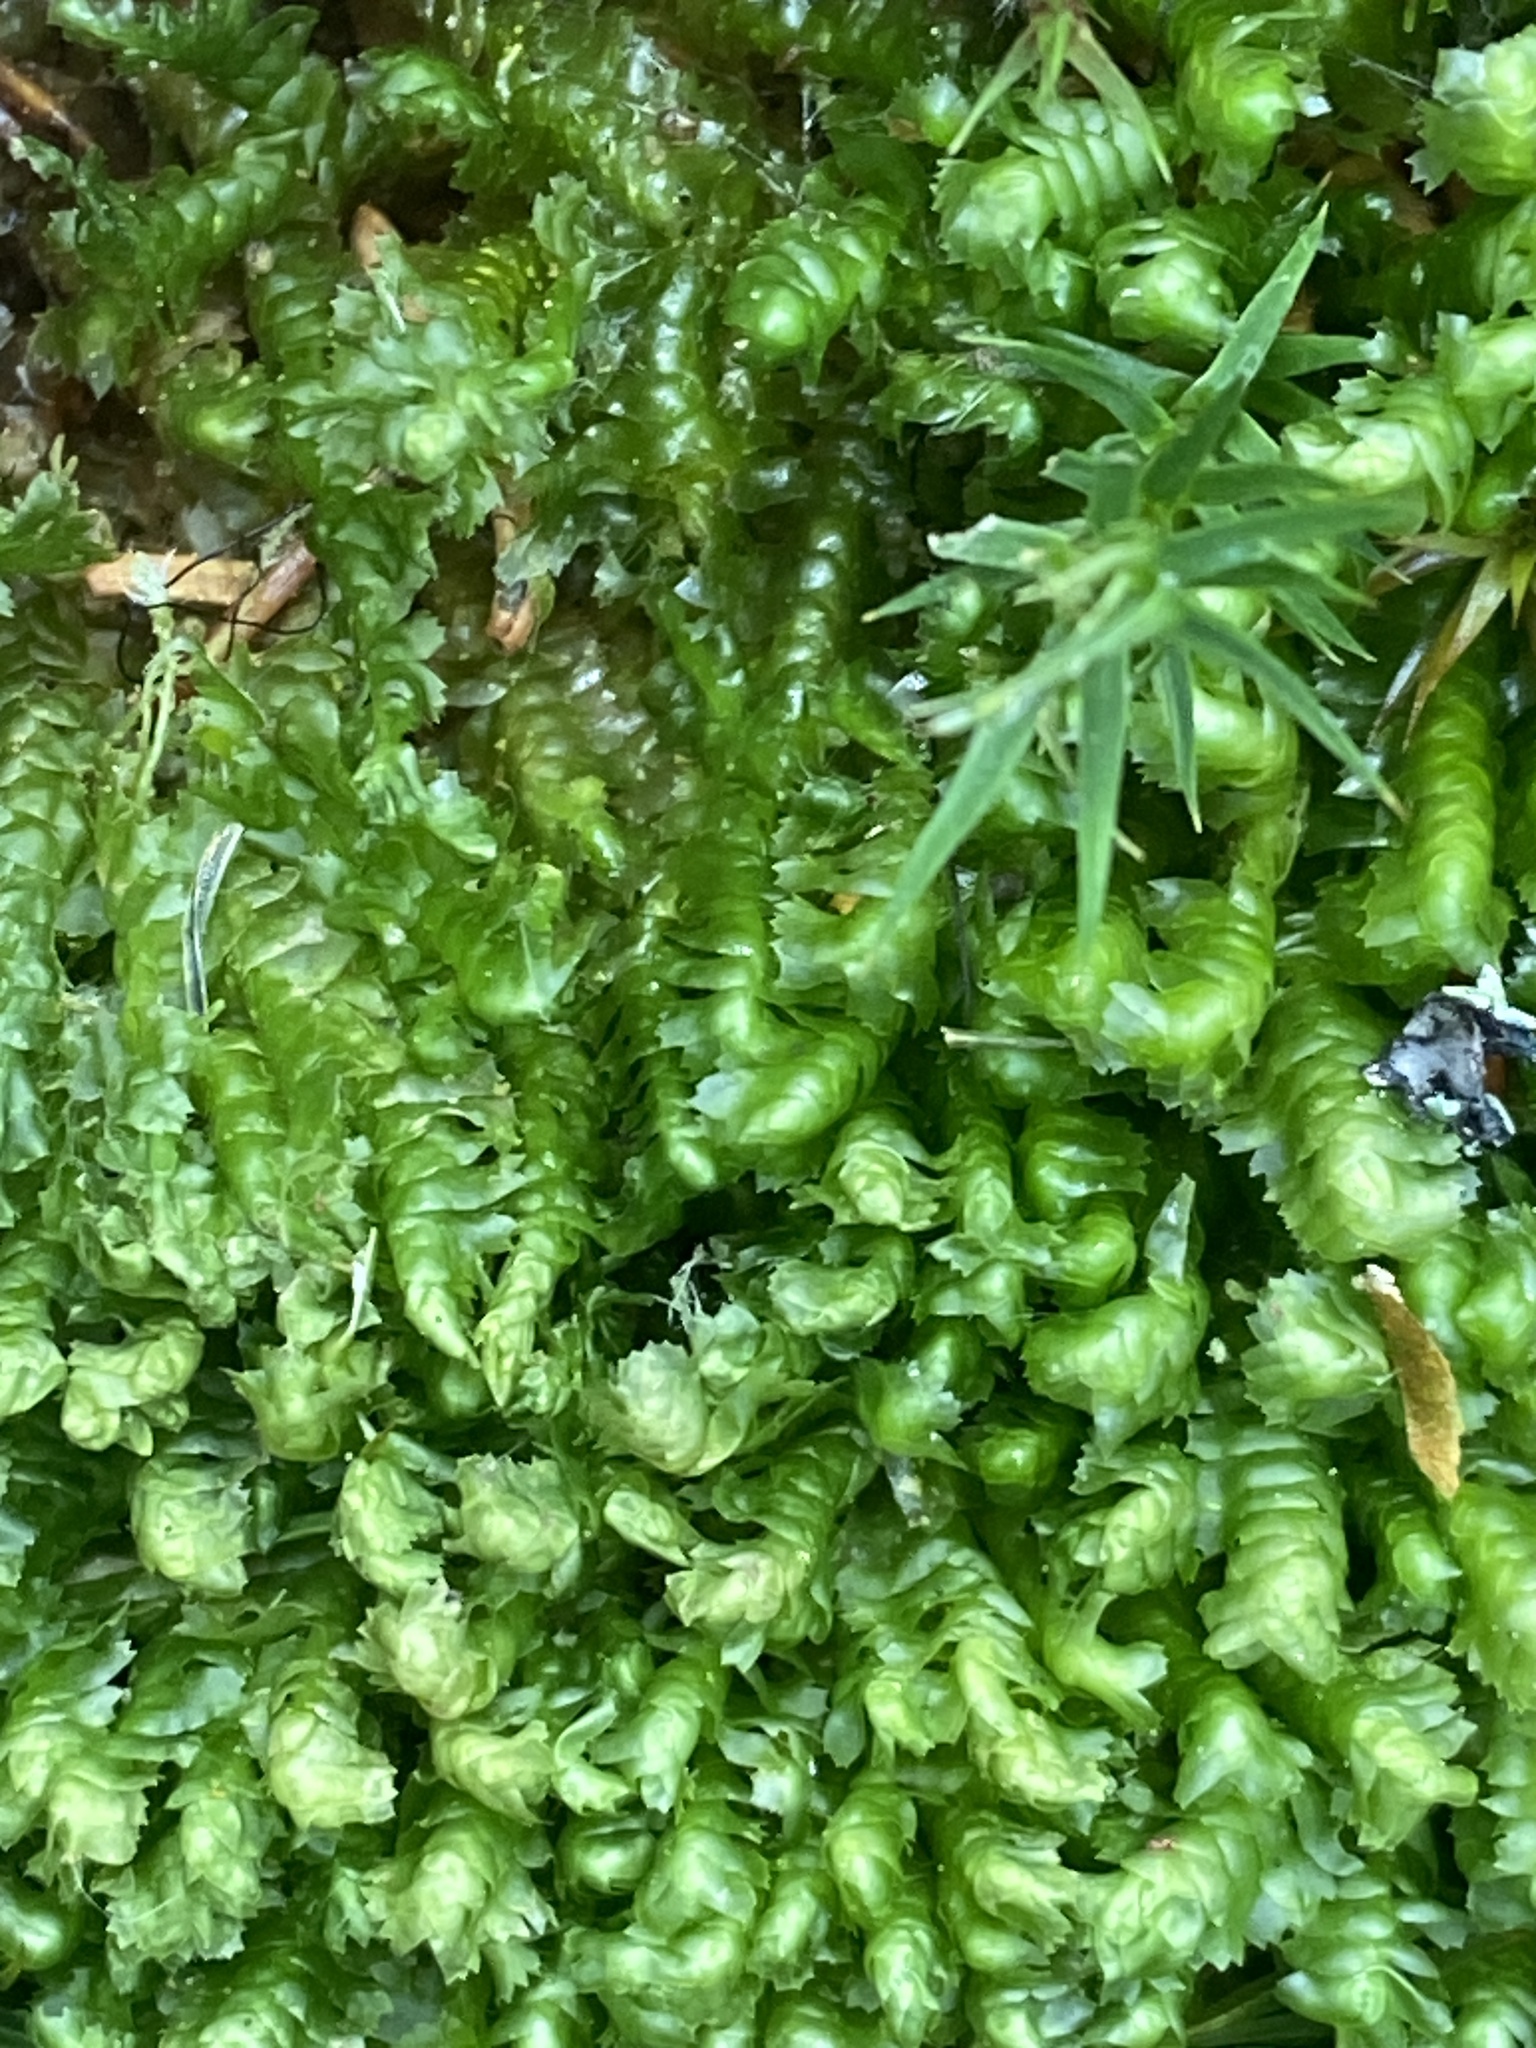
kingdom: Plantae
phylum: Marchantiophyta
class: Jungermanniopsida
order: Jungermanniales
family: Lepidoziaceae
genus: Bazzania
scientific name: Bazzania trilobata
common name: Three-lobed whipwort
